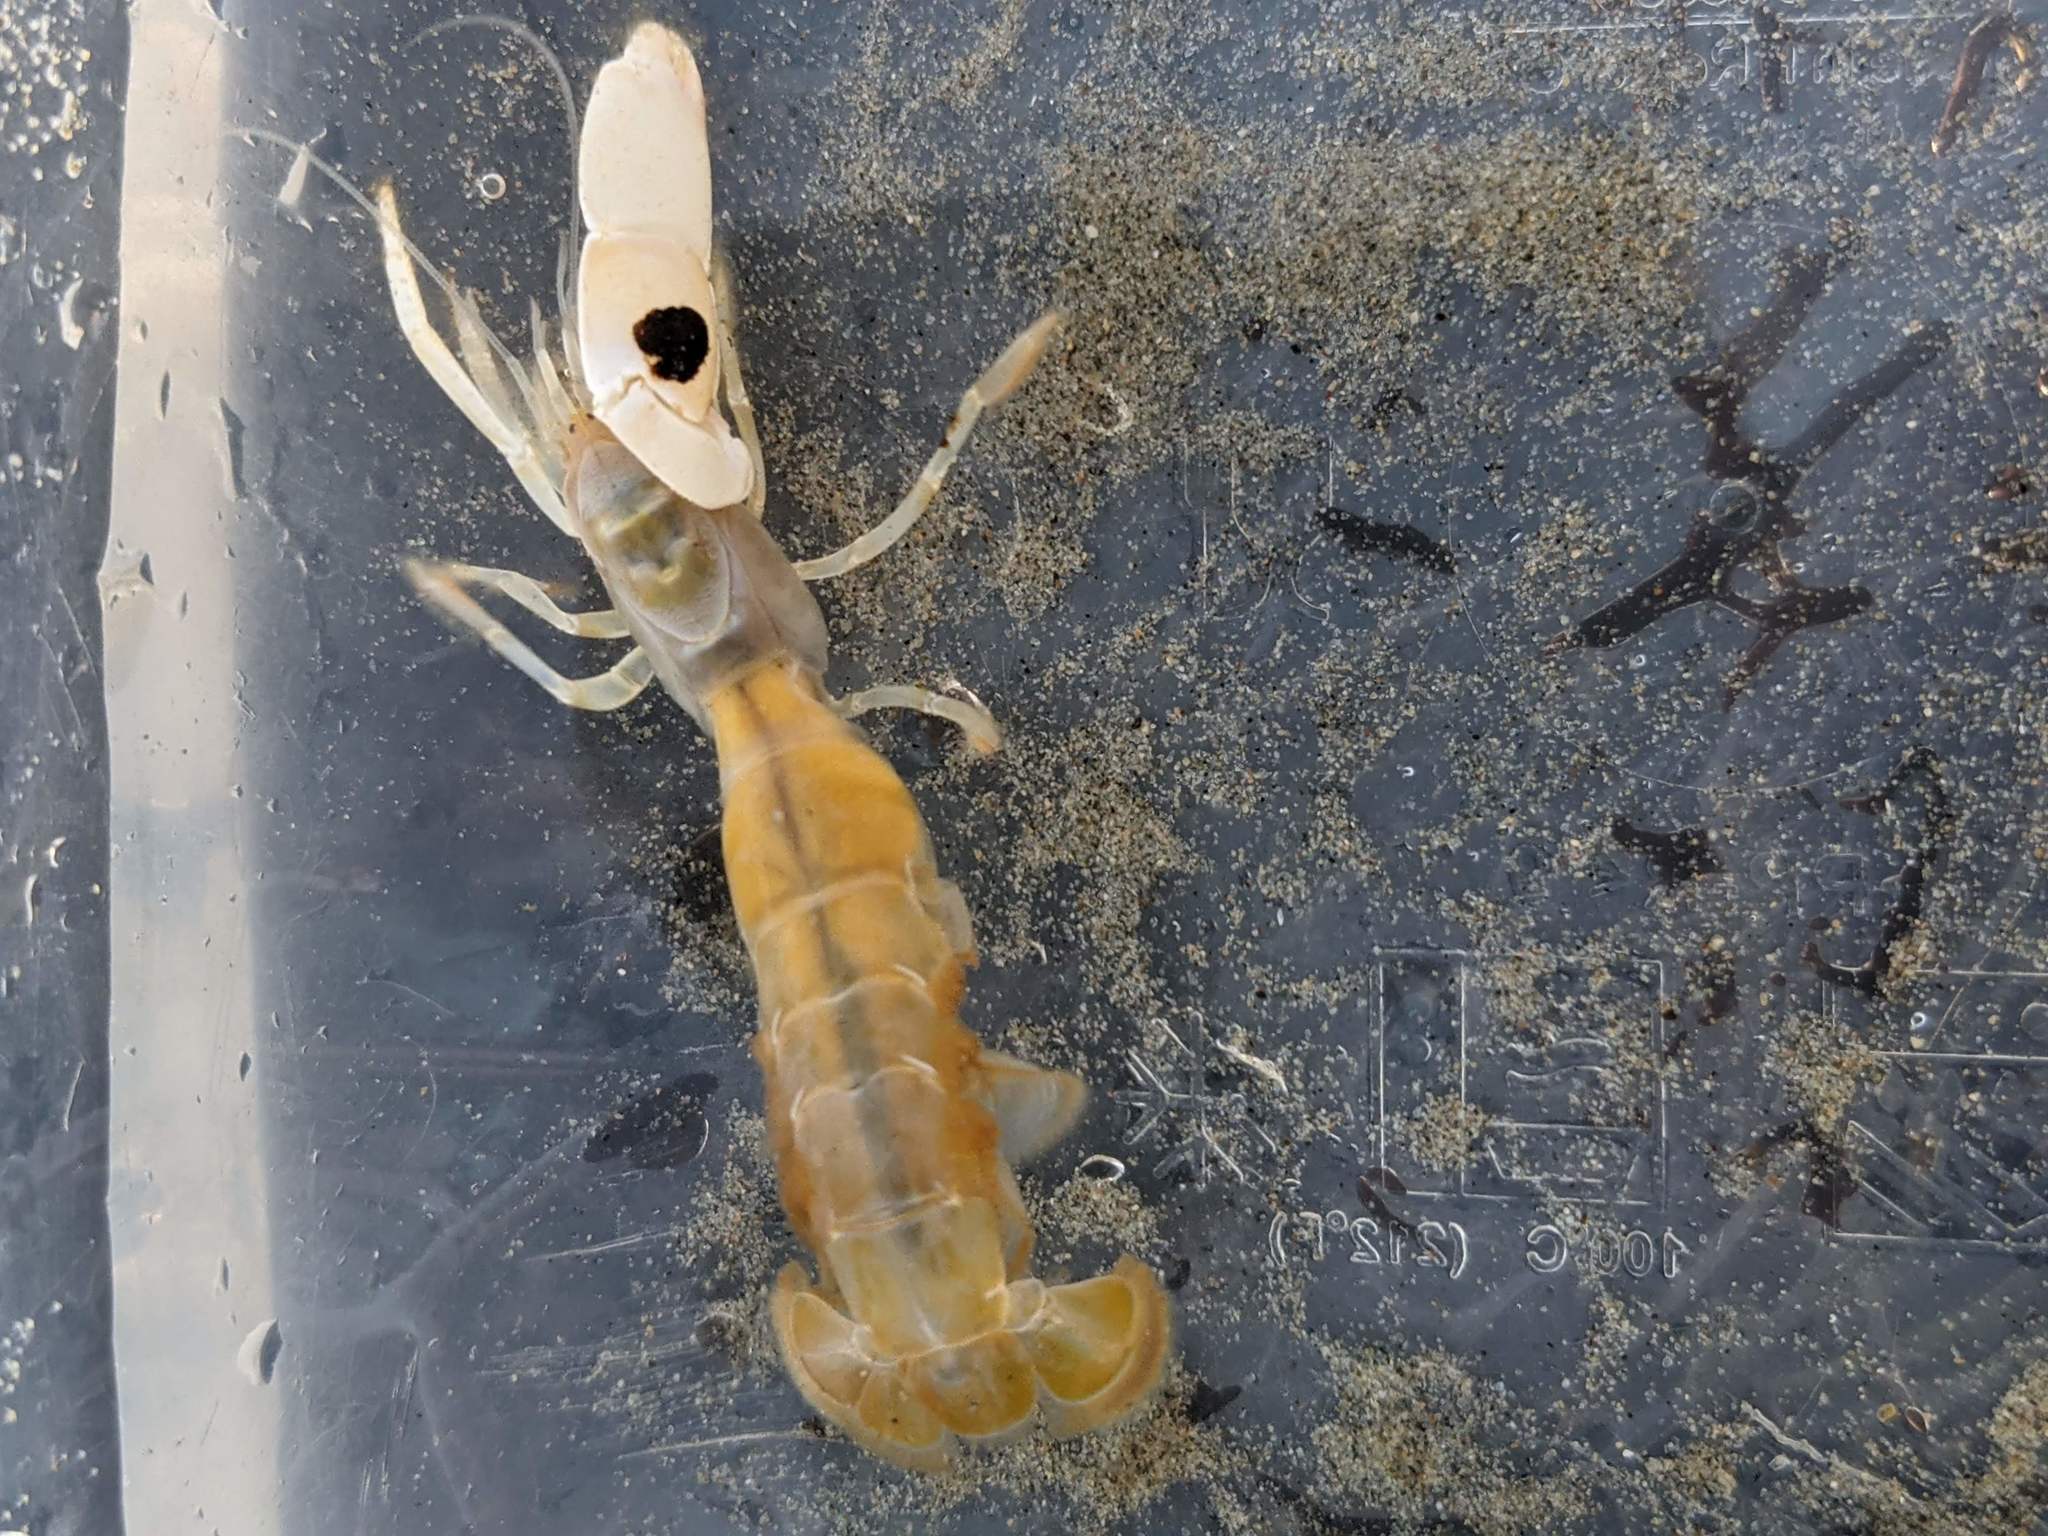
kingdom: Animalia
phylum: Arthropoda
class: Malacostraca
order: Decapoda
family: Callianassidae
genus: Neotrypaea
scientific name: Neotrypaea biffari
